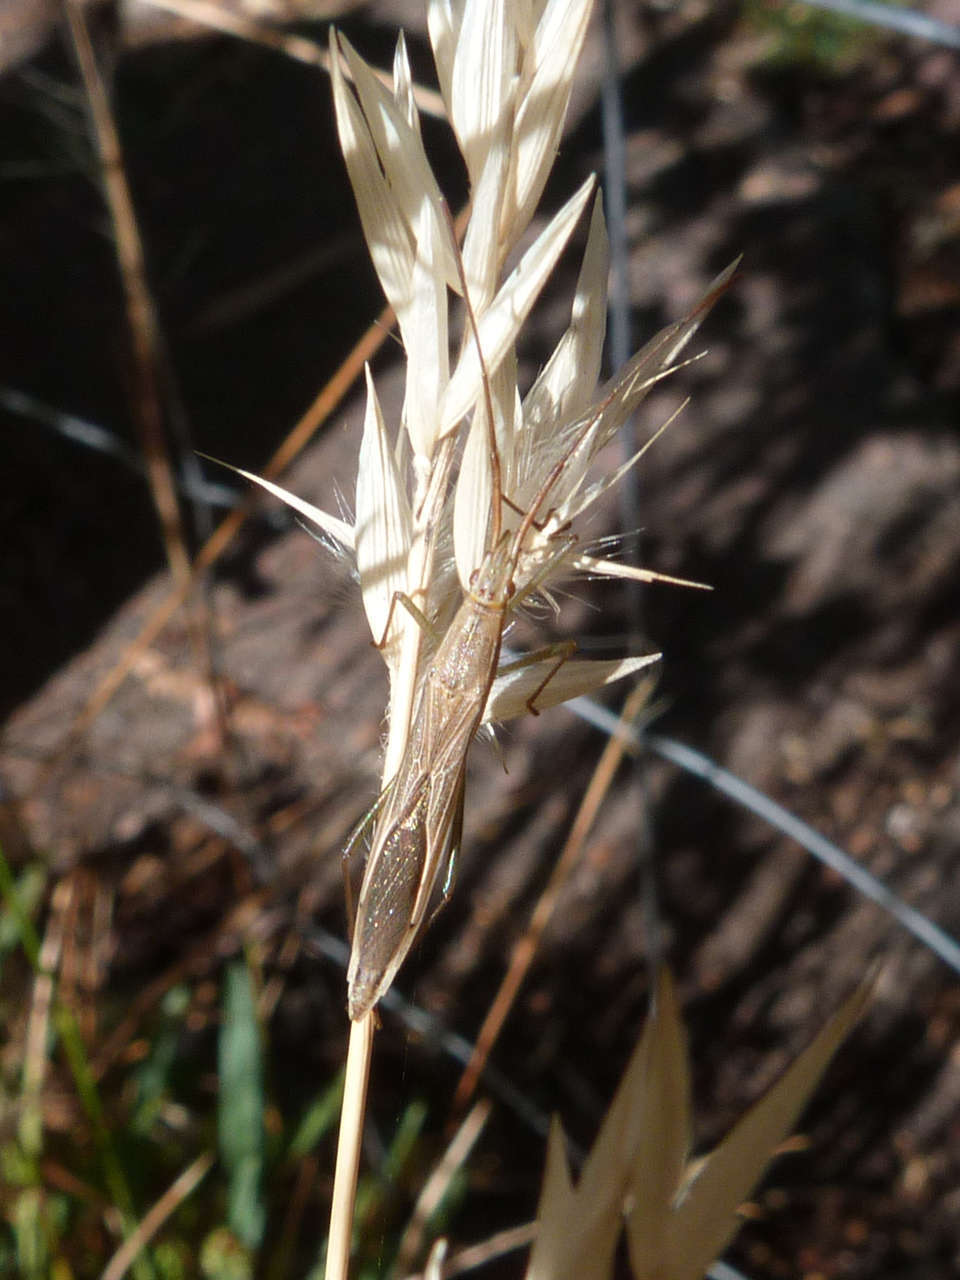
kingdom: Animalia
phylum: Arthropoda
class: Insecta
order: Hemiptera
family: Alydidae
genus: Mutusca
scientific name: Mutusca brevicornis
